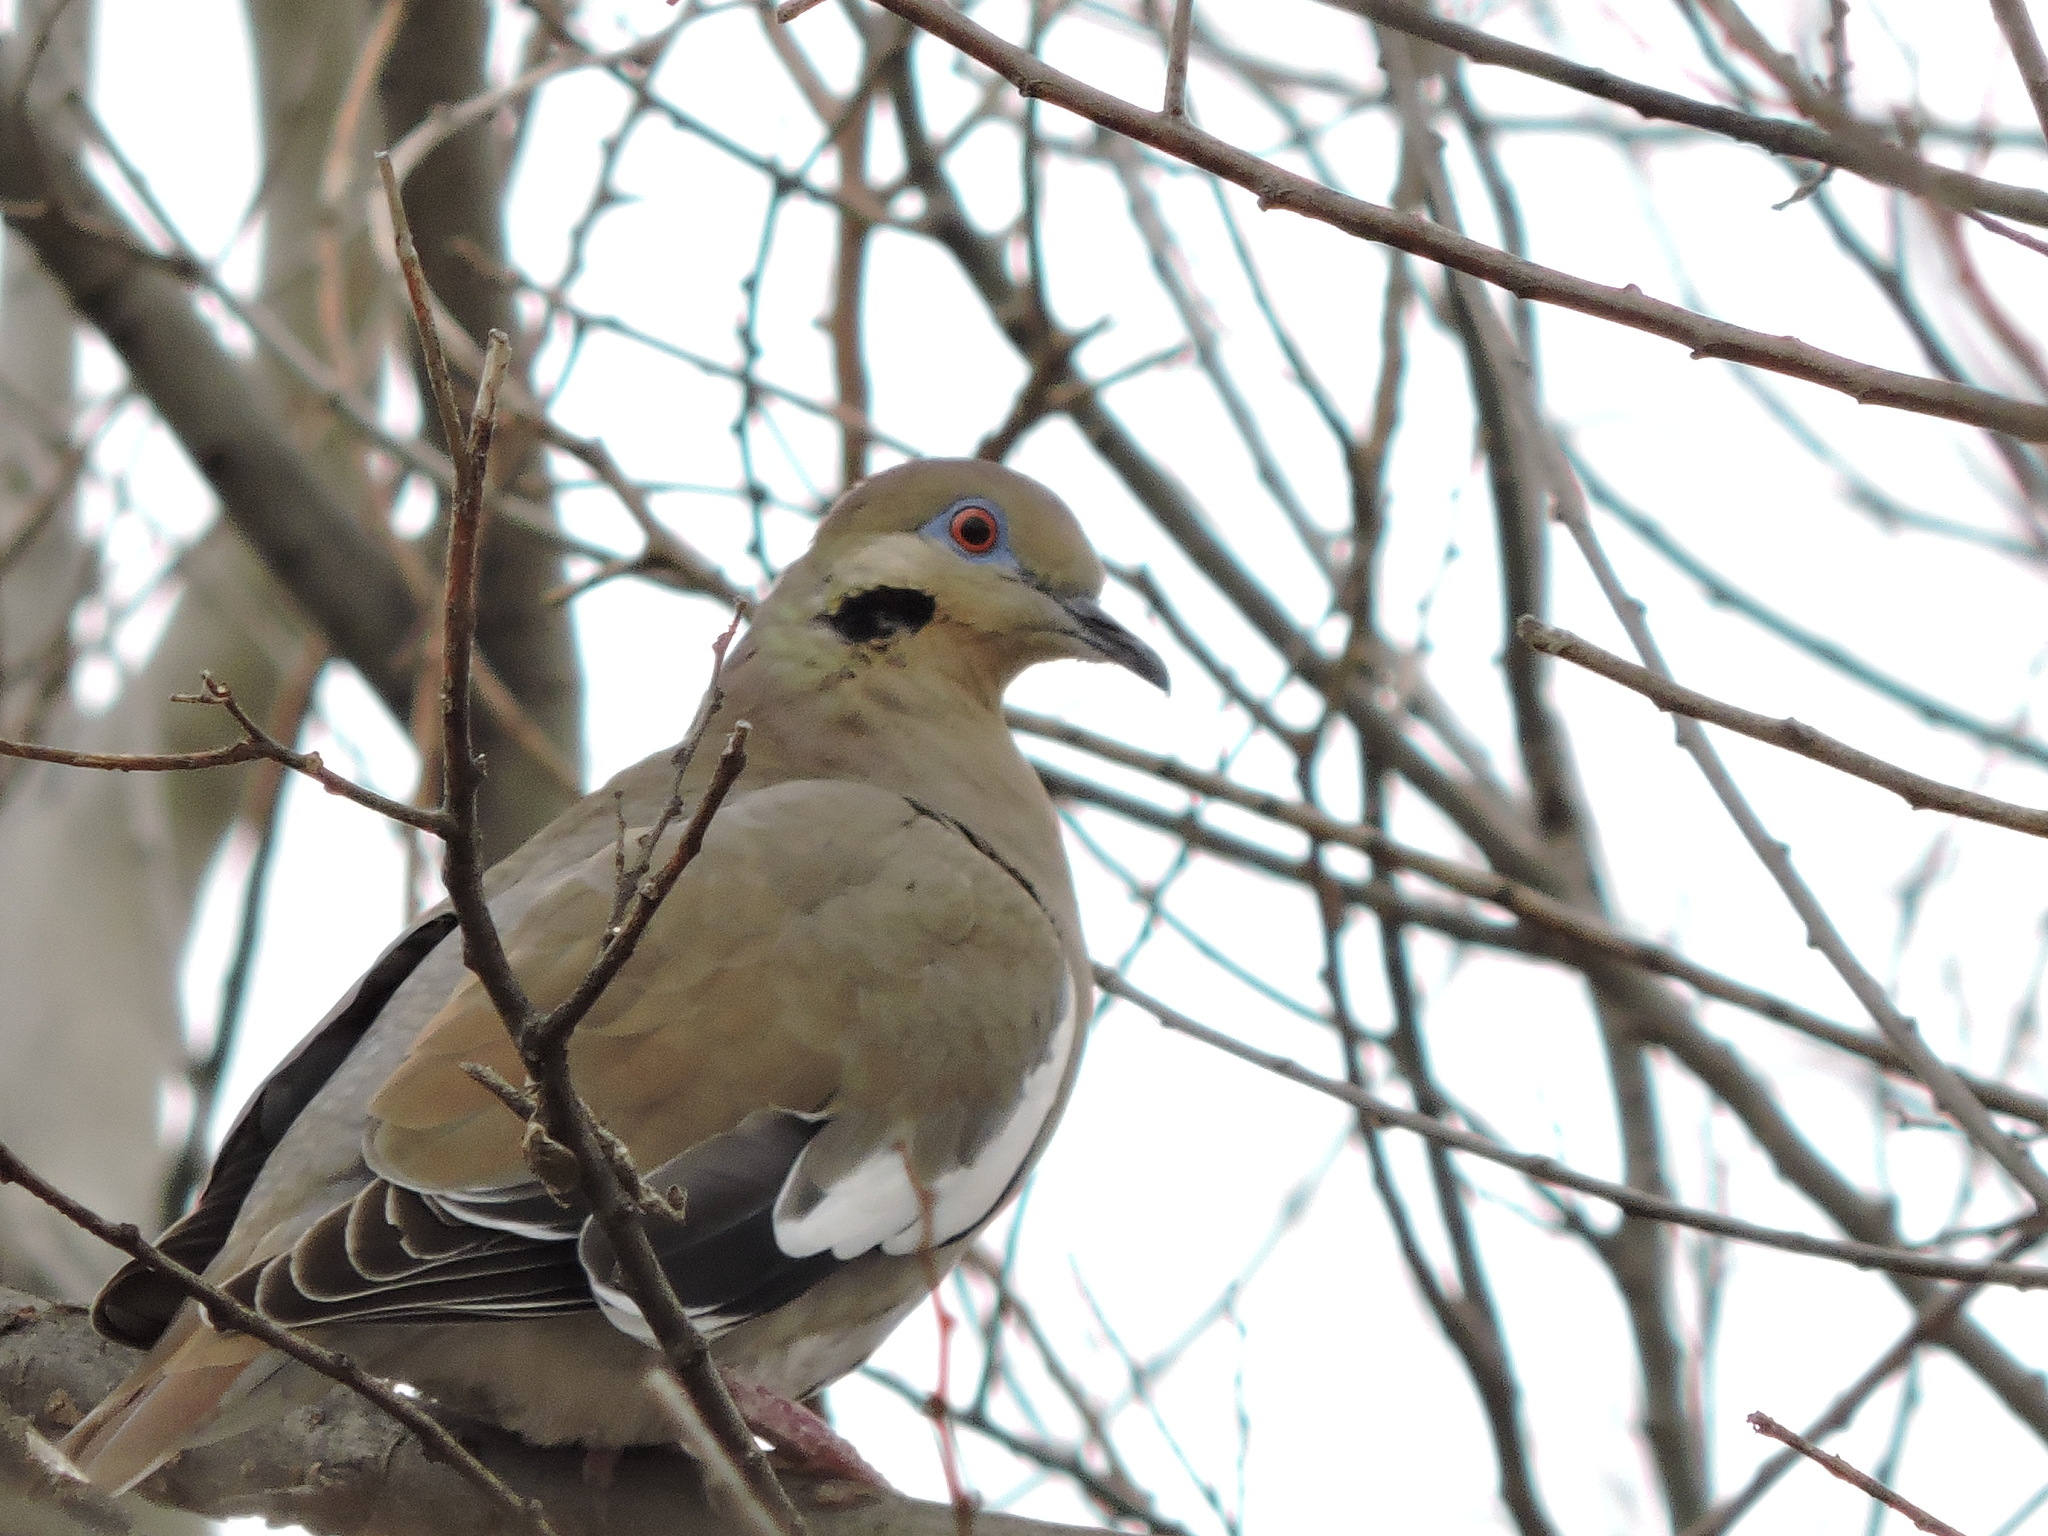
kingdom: Animalia
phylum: Chordata
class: Aves
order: Columbiformes
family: Columbidae
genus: Zenaida
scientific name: Zenaida asiatica
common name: White-winged dove
